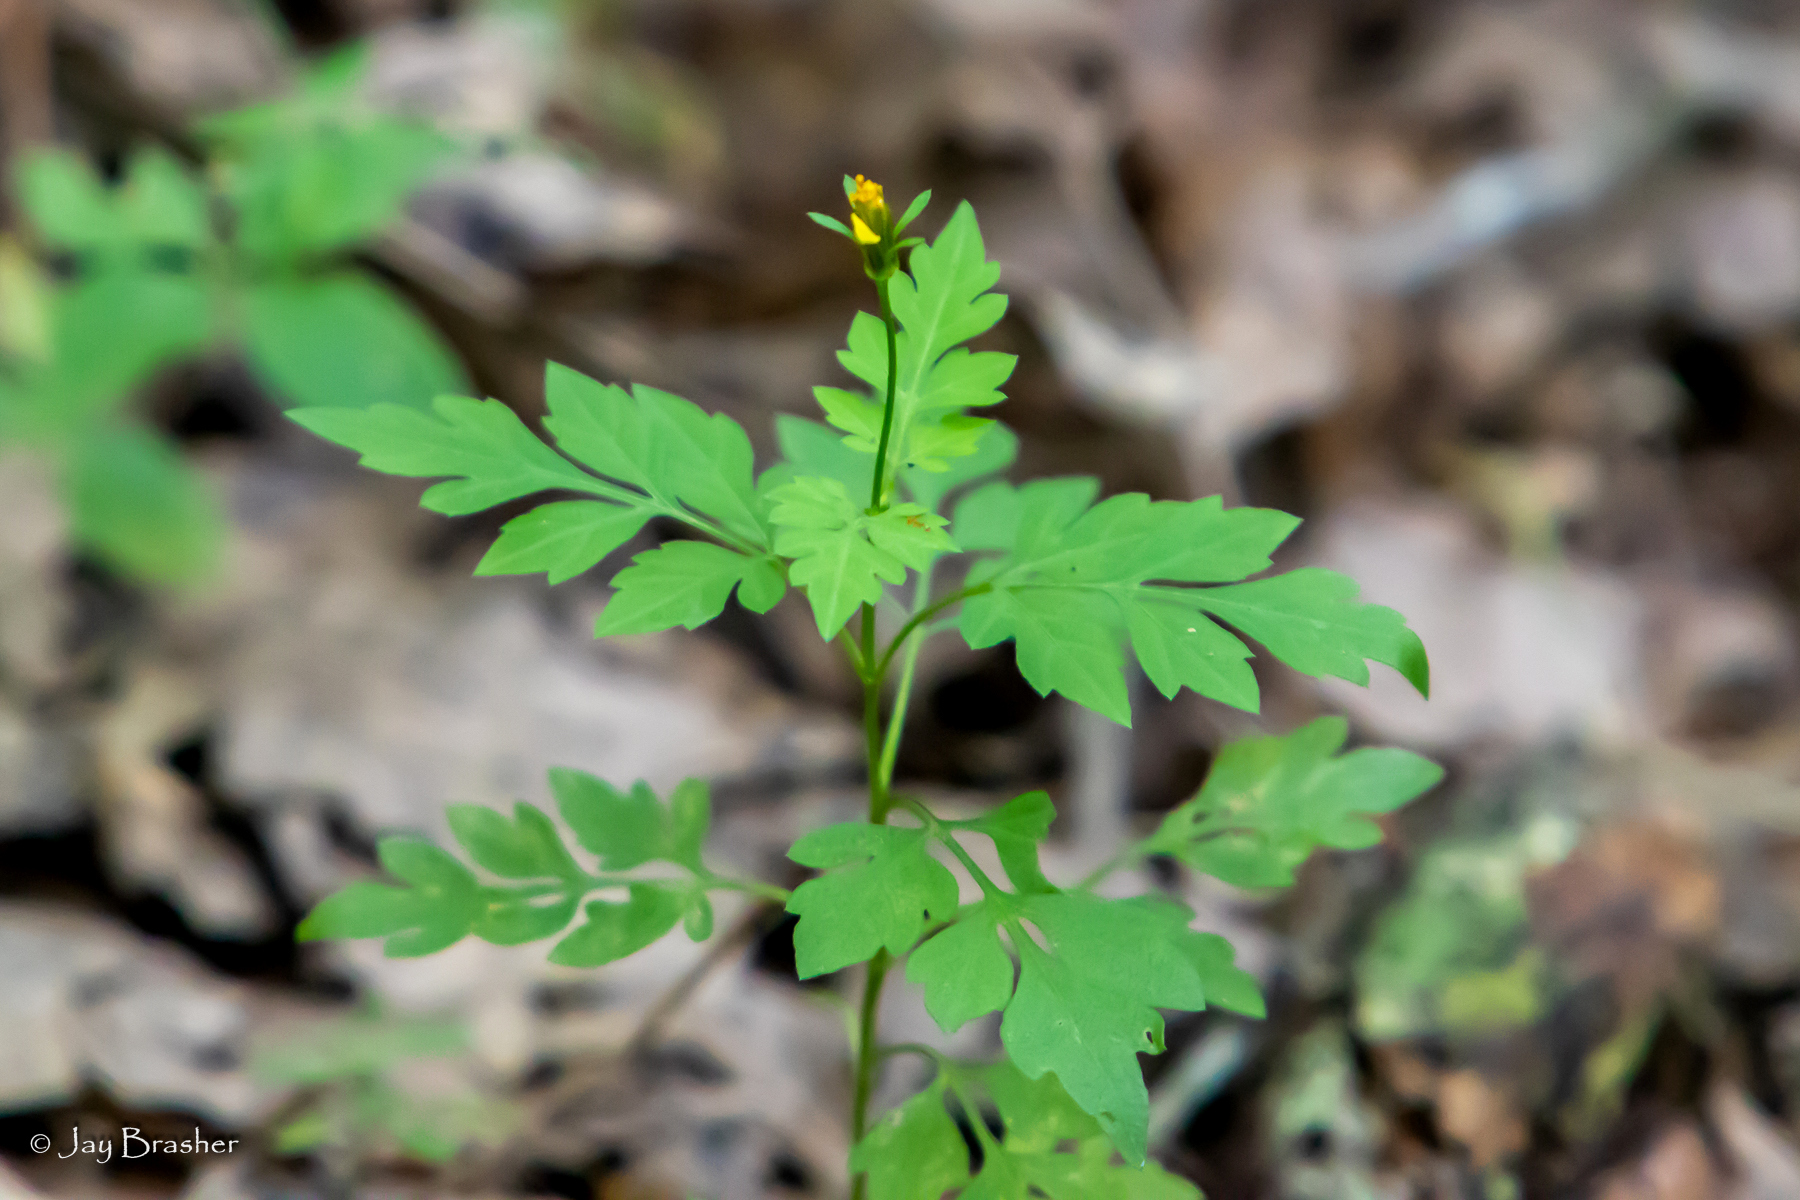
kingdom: Plantae
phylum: Tracheophyta
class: Magnoliopsida
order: Asterales
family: Asteraceae
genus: Bidens
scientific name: Bidens bipinnata
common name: Spanish-needles
